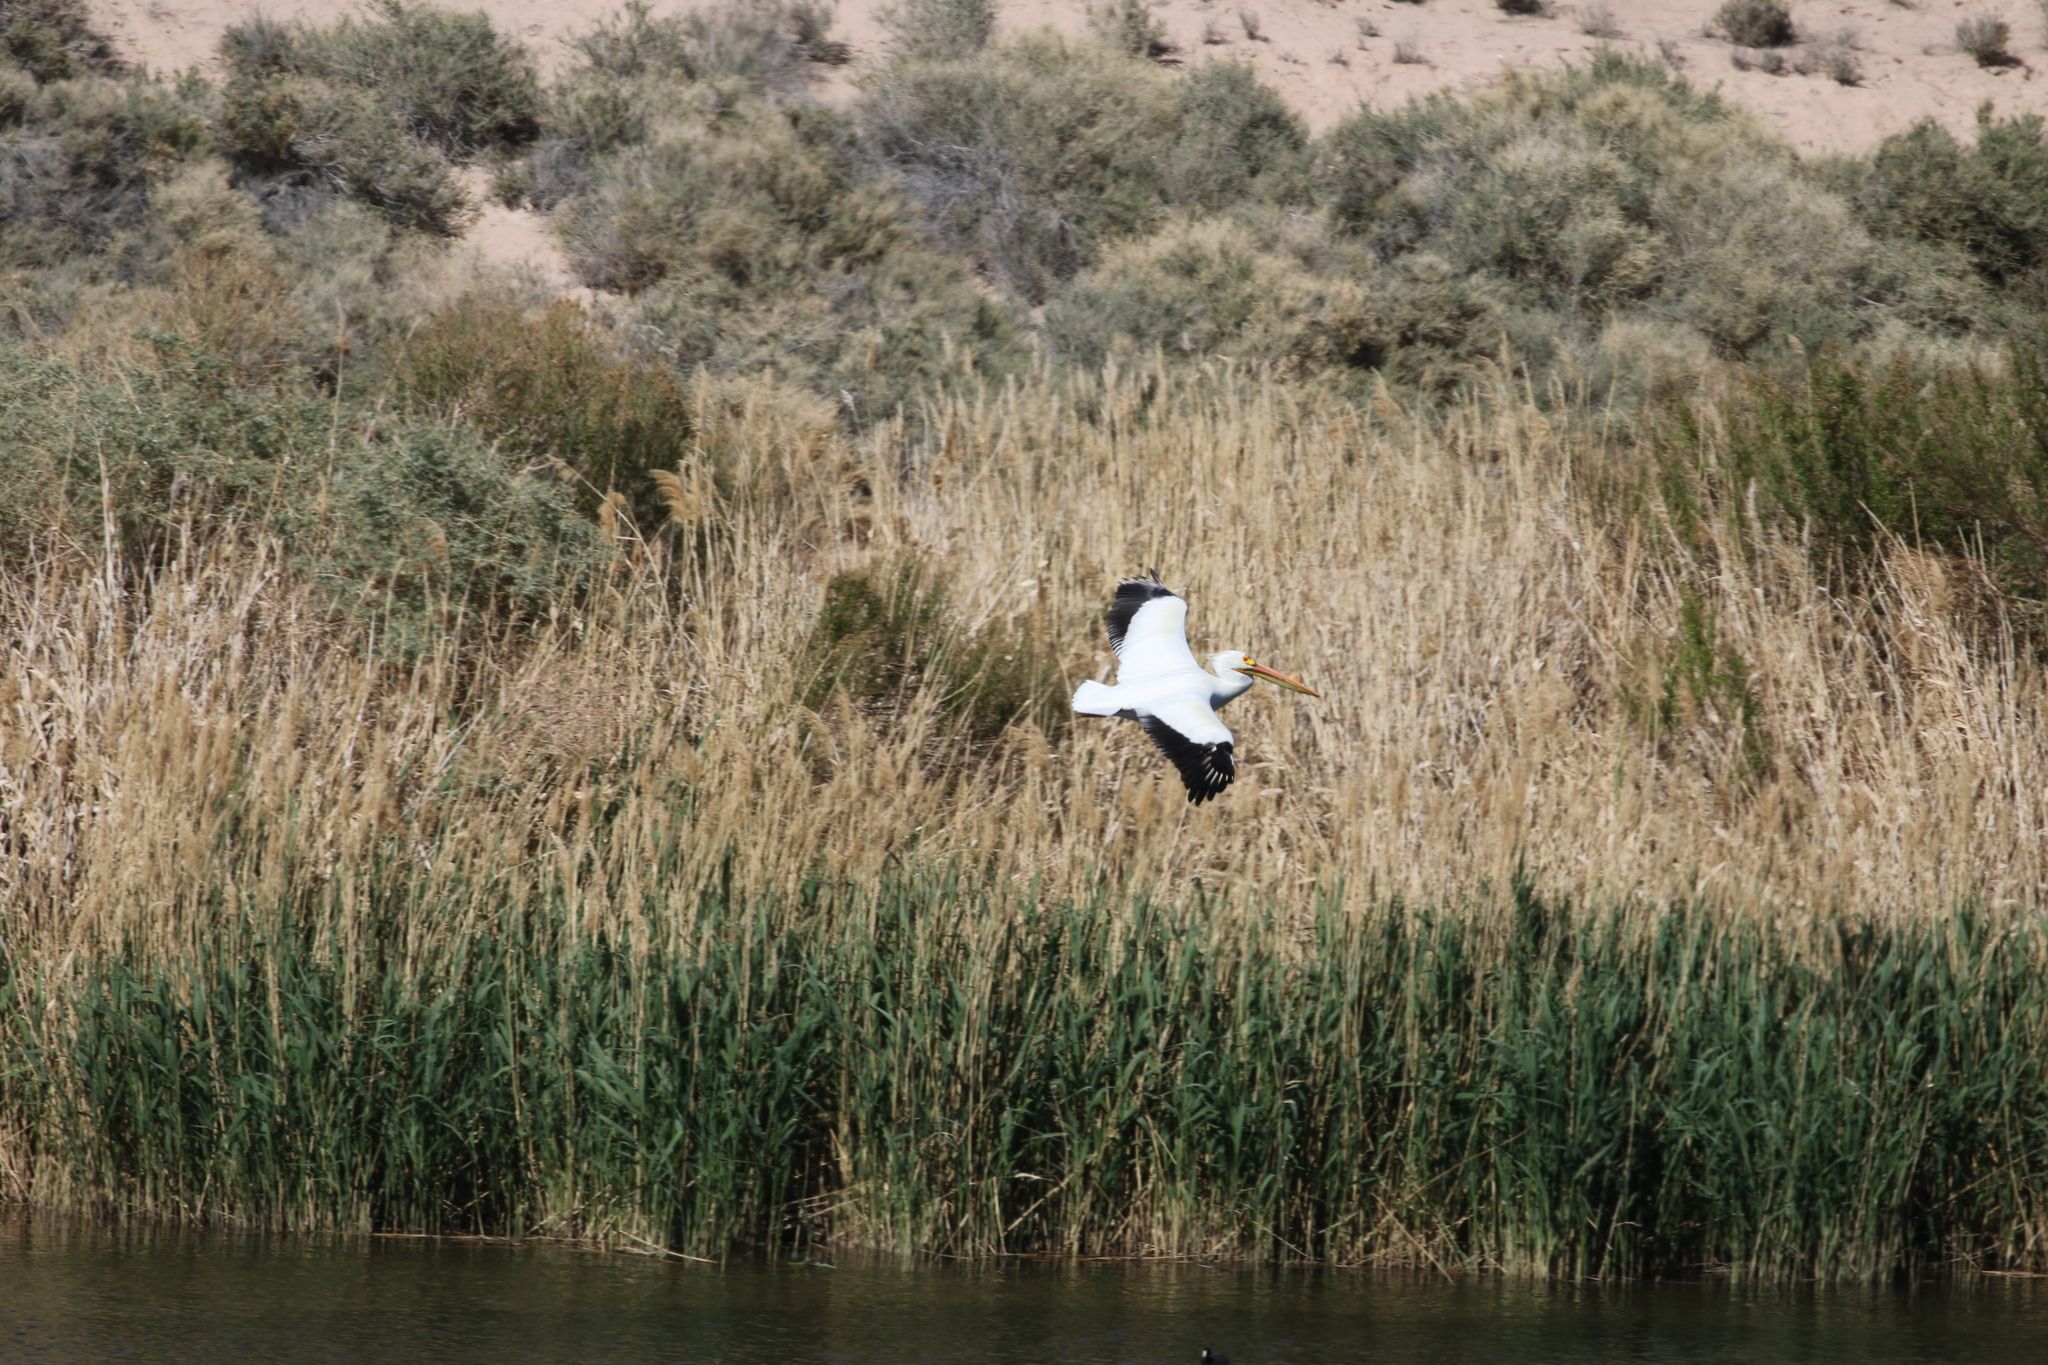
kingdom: Animalia
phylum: Chordata
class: Aves
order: Pelecaniformes
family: Pelecanidae
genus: Pelecanus
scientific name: Pelecanus erythrorhynchos
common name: American white pelican
